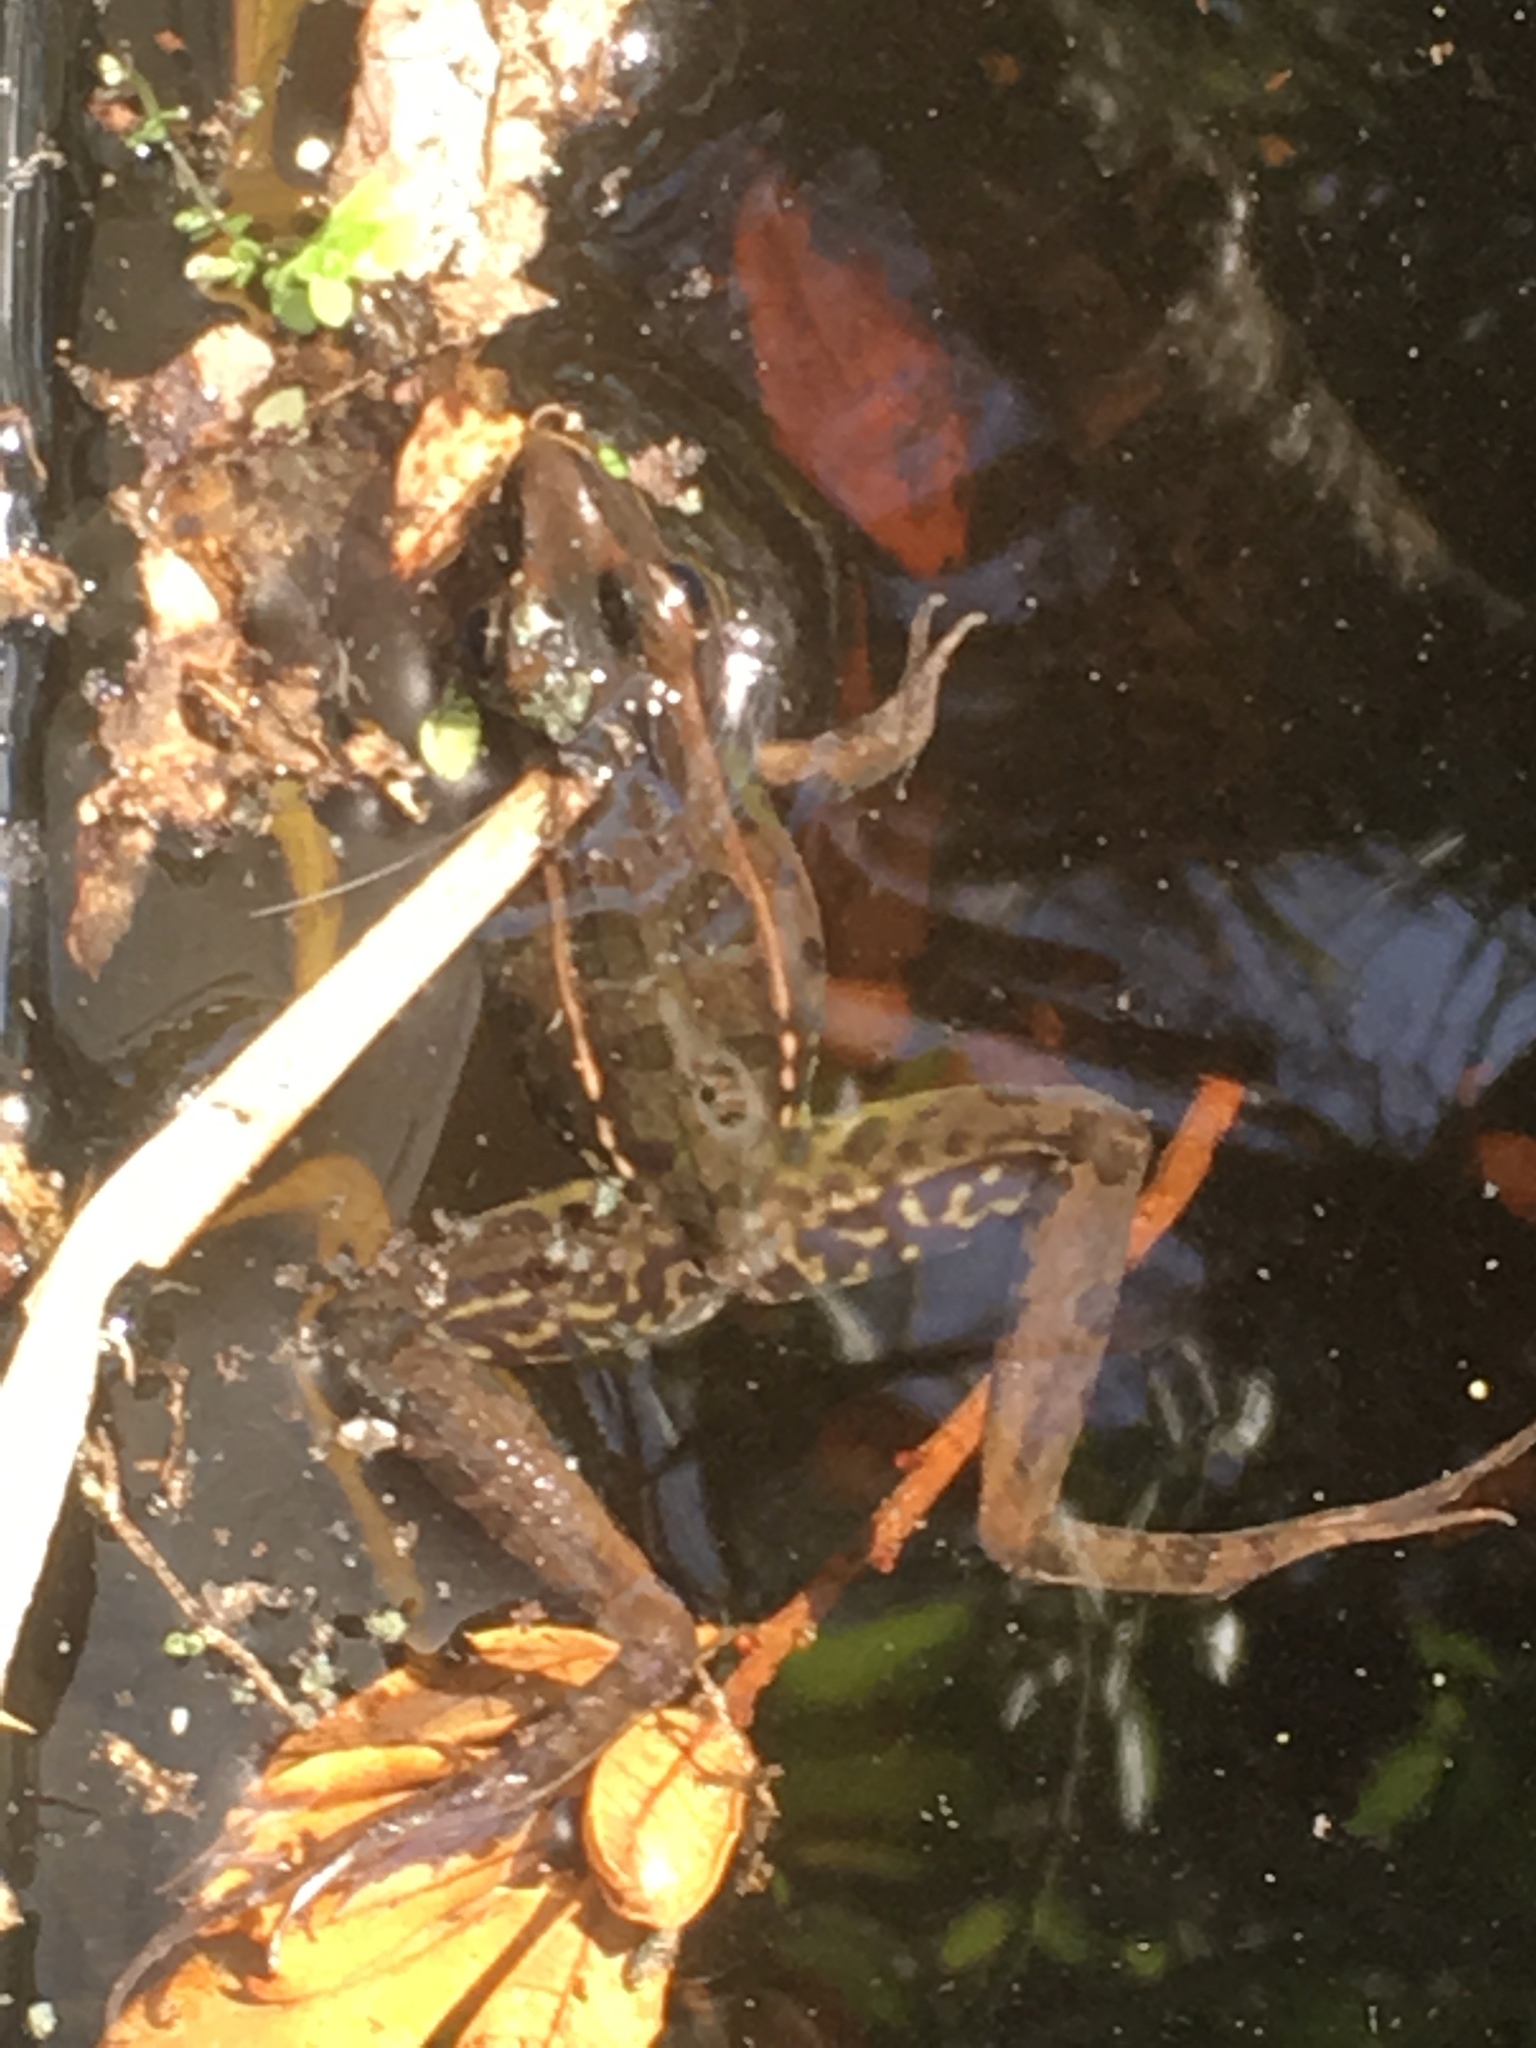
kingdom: Animalia
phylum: Chordata
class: Amphibia
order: Anura
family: Ranidae
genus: Lithobates
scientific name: Lithobates sphenocephalus
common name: Southern leopard frog
